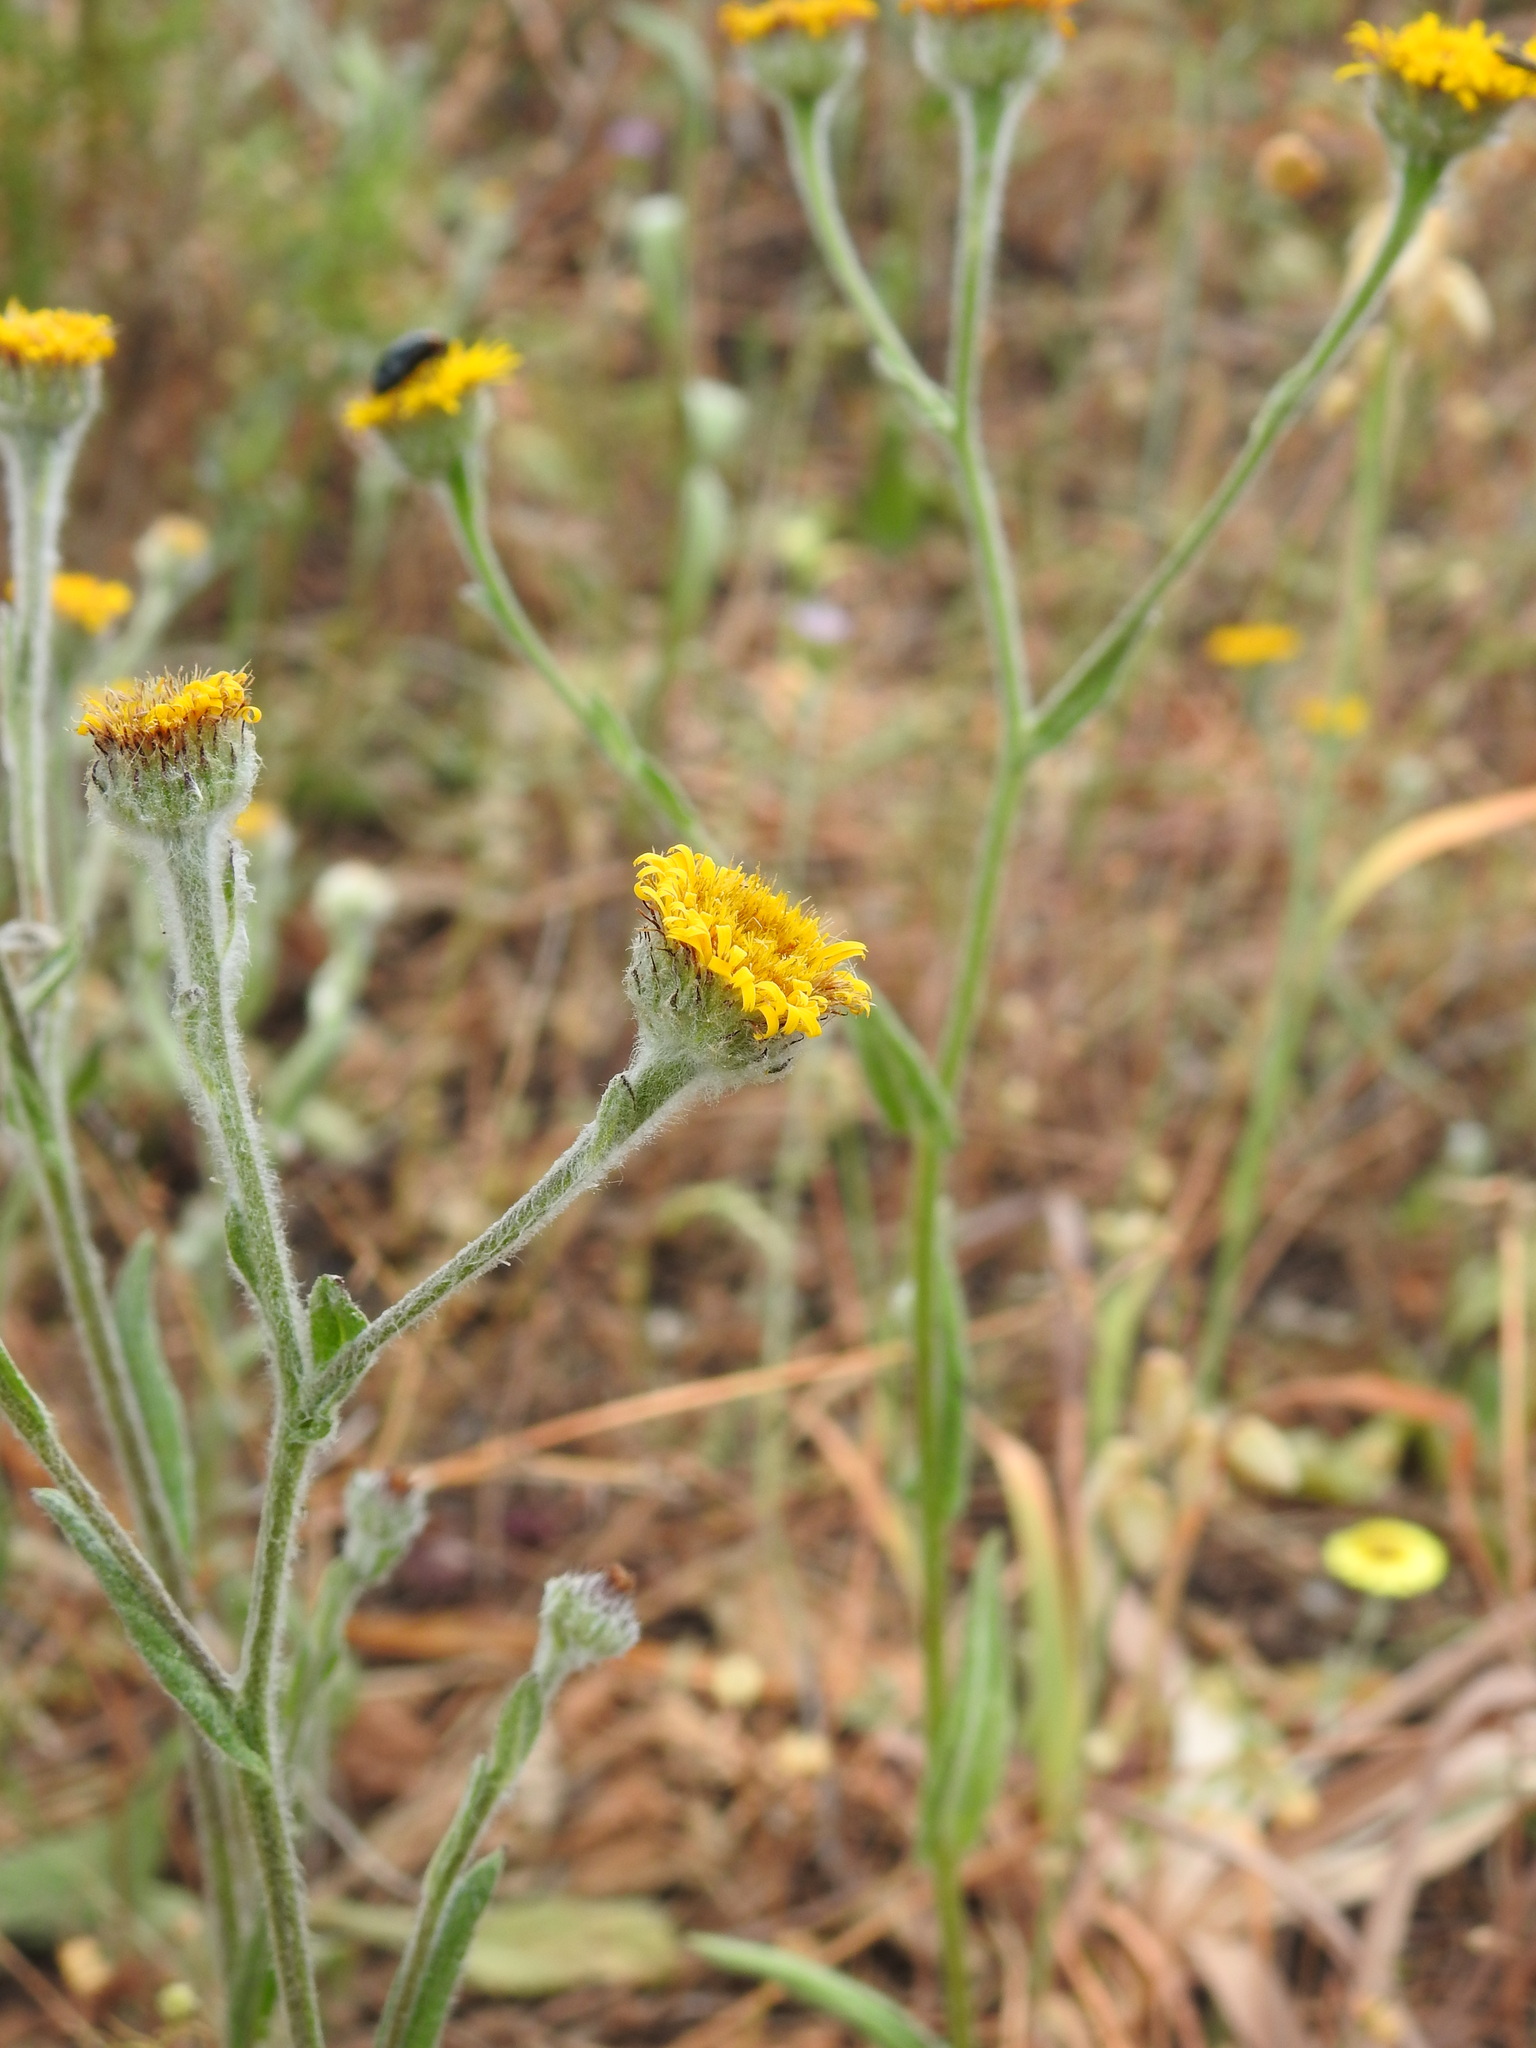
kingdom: Plantae
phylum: Tracheophyta
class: Magnoliopsida
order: Asterales
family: Asteraceae
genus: Pulicaria
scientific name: Pulicaria odora
